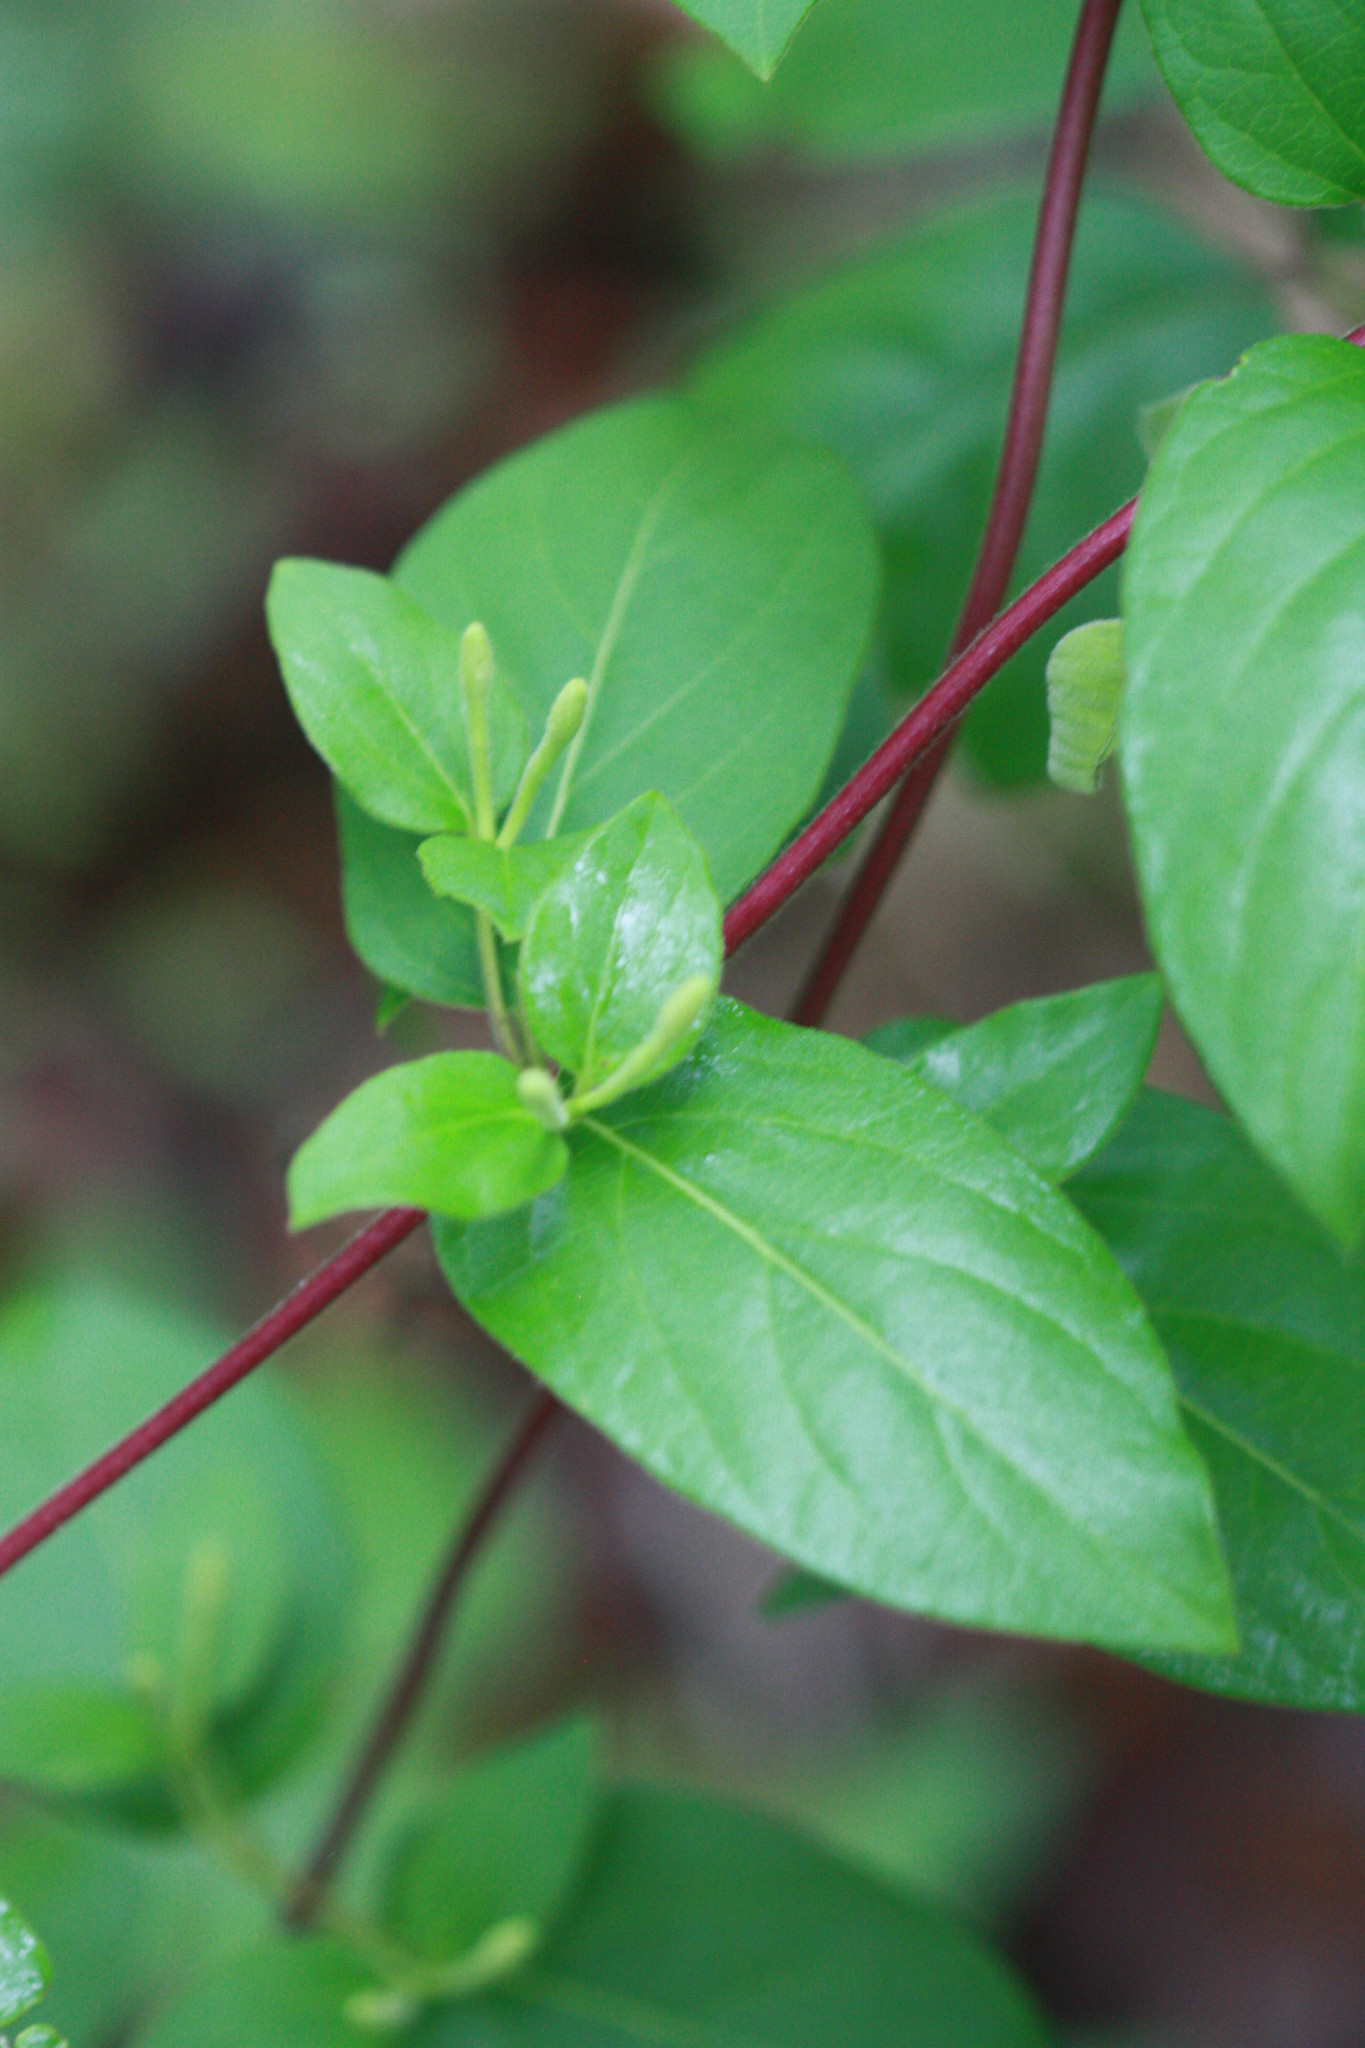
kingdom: Plantae
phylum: Tracheophyta
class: Magnoliopsida
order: Dipsacales
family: Caprifoliaceae
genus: Lonicera
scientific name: Lonicera japonica
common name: Japanese honeysuckle
